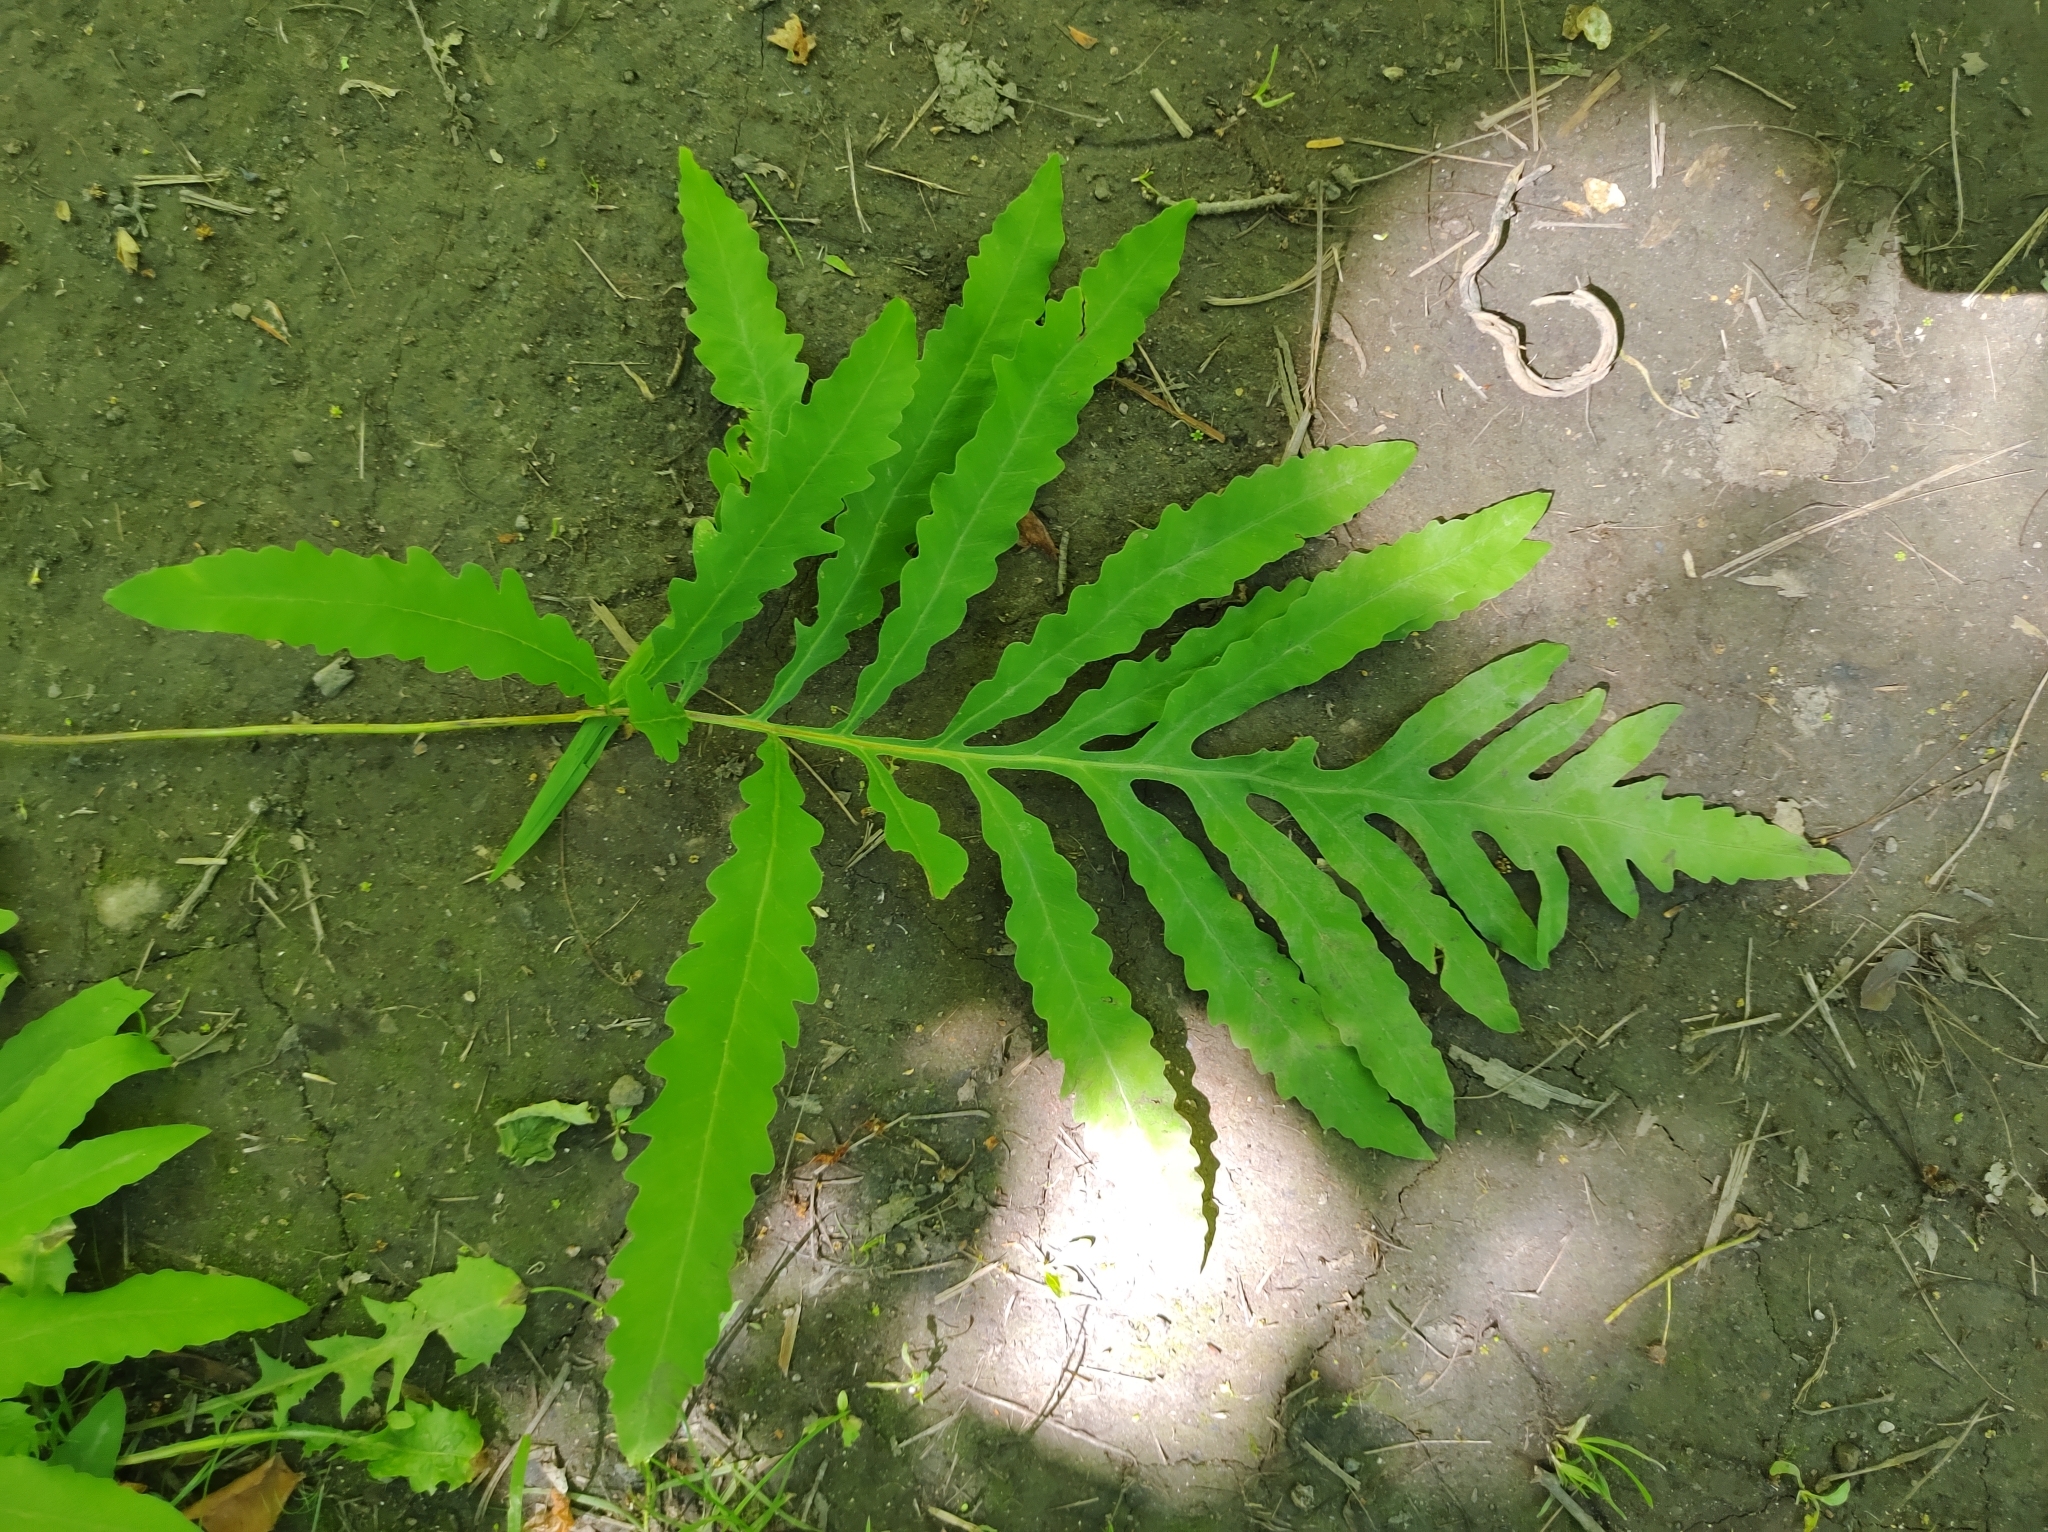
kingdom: Plantae
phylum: Tracheophyta
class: Polypodiopsida
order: Polypodiales
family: Onocleaceae
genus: Onoclea
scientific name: Onoclea sensibilis
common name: Sensitive fern
